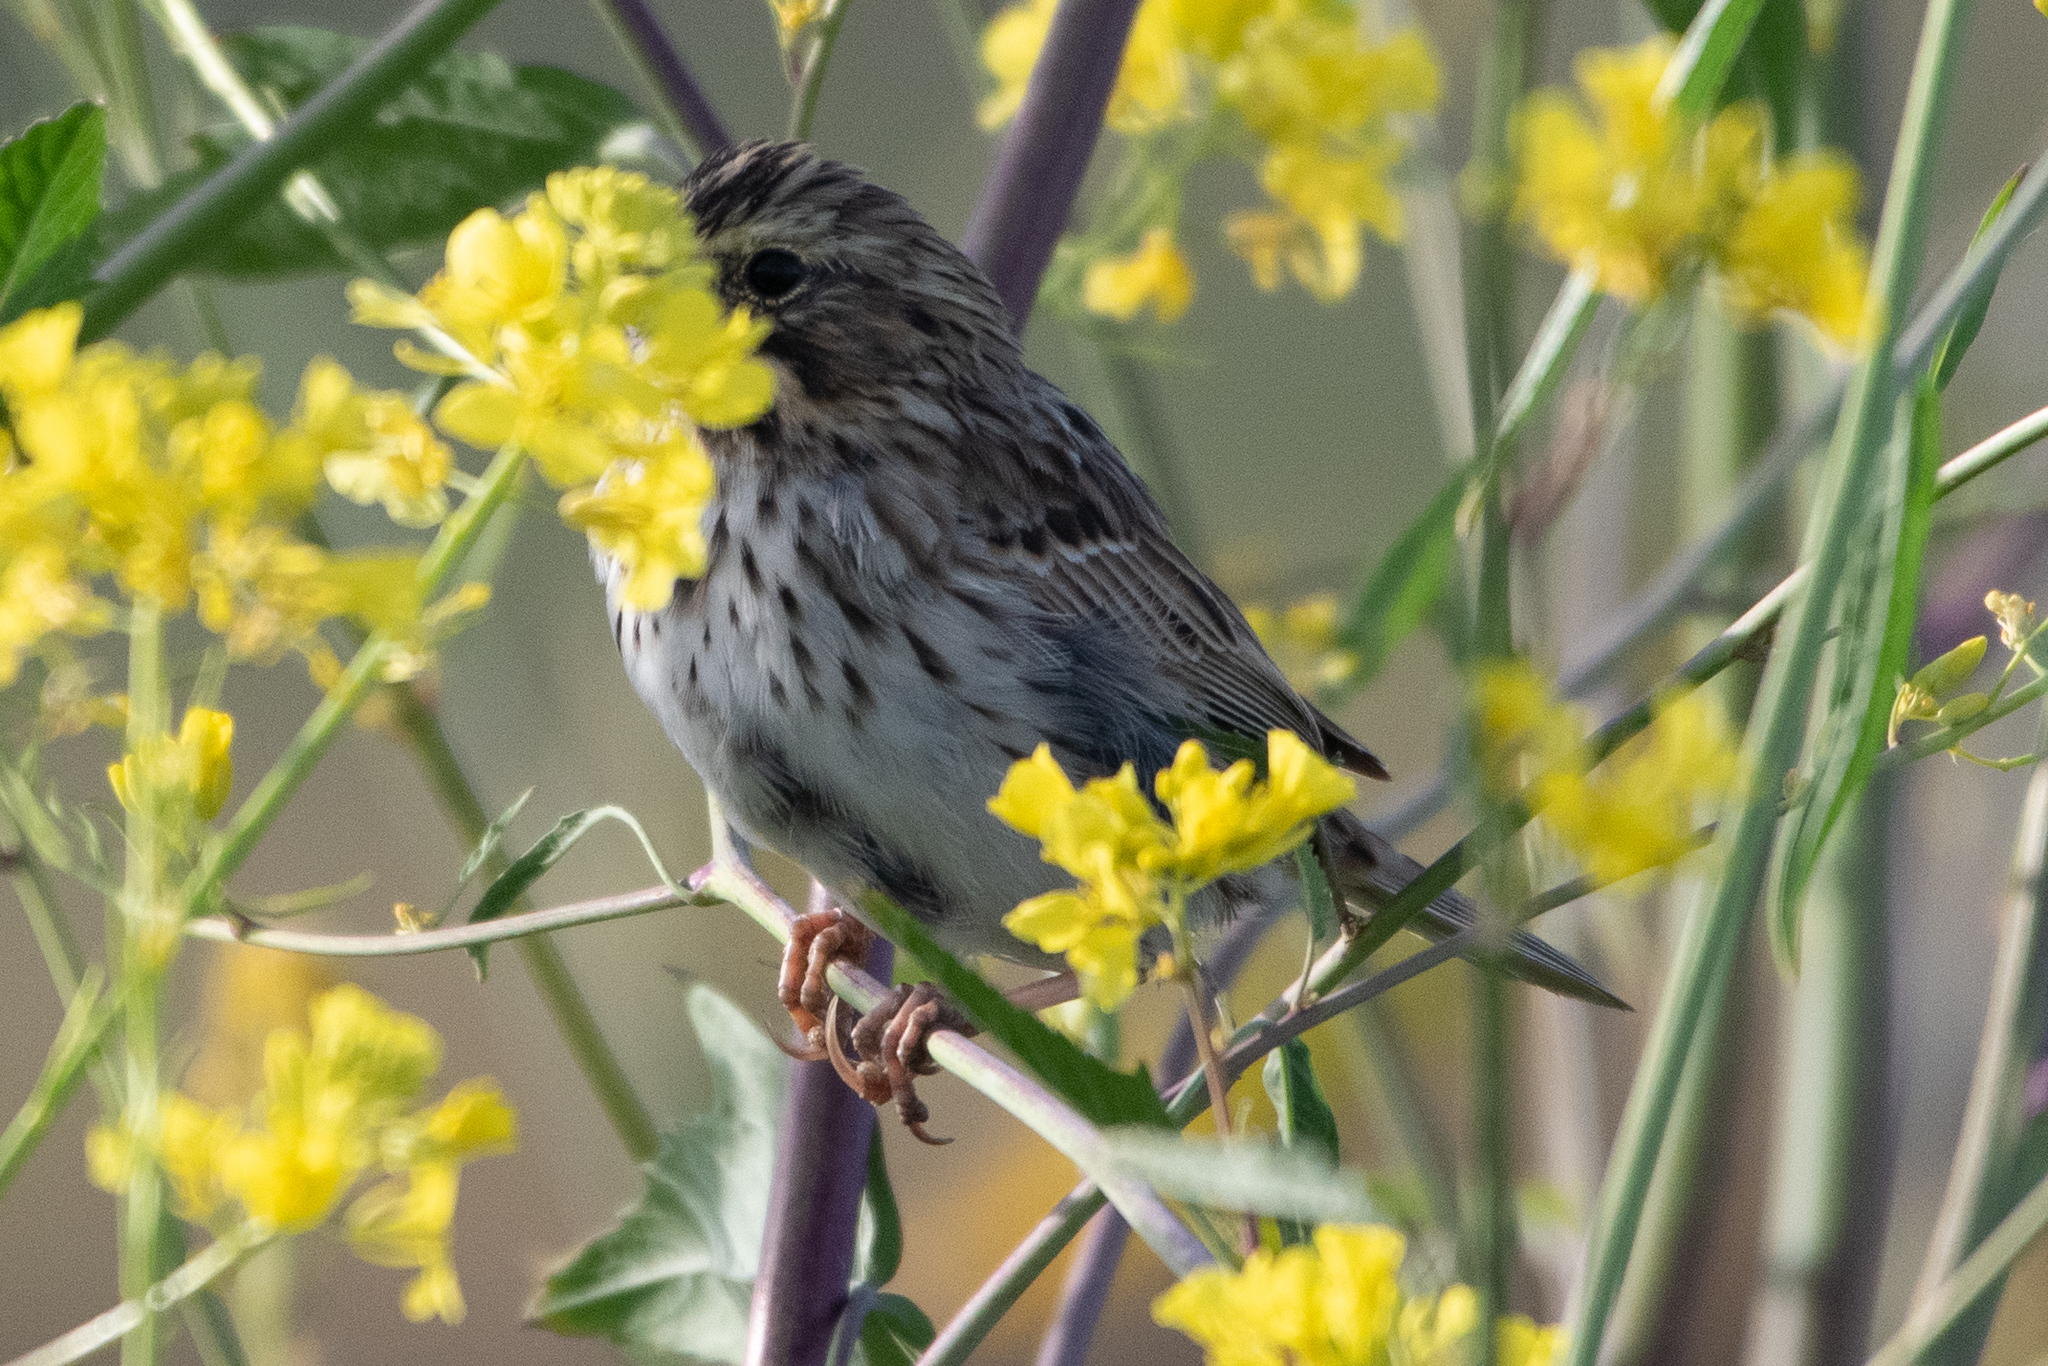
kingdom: Animalia
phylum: Chordata
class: Aves
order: Passeriformes
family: Passerellidae
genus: Passerculus
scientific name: Passerculus sandwichensis
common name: Savannah sparrow
